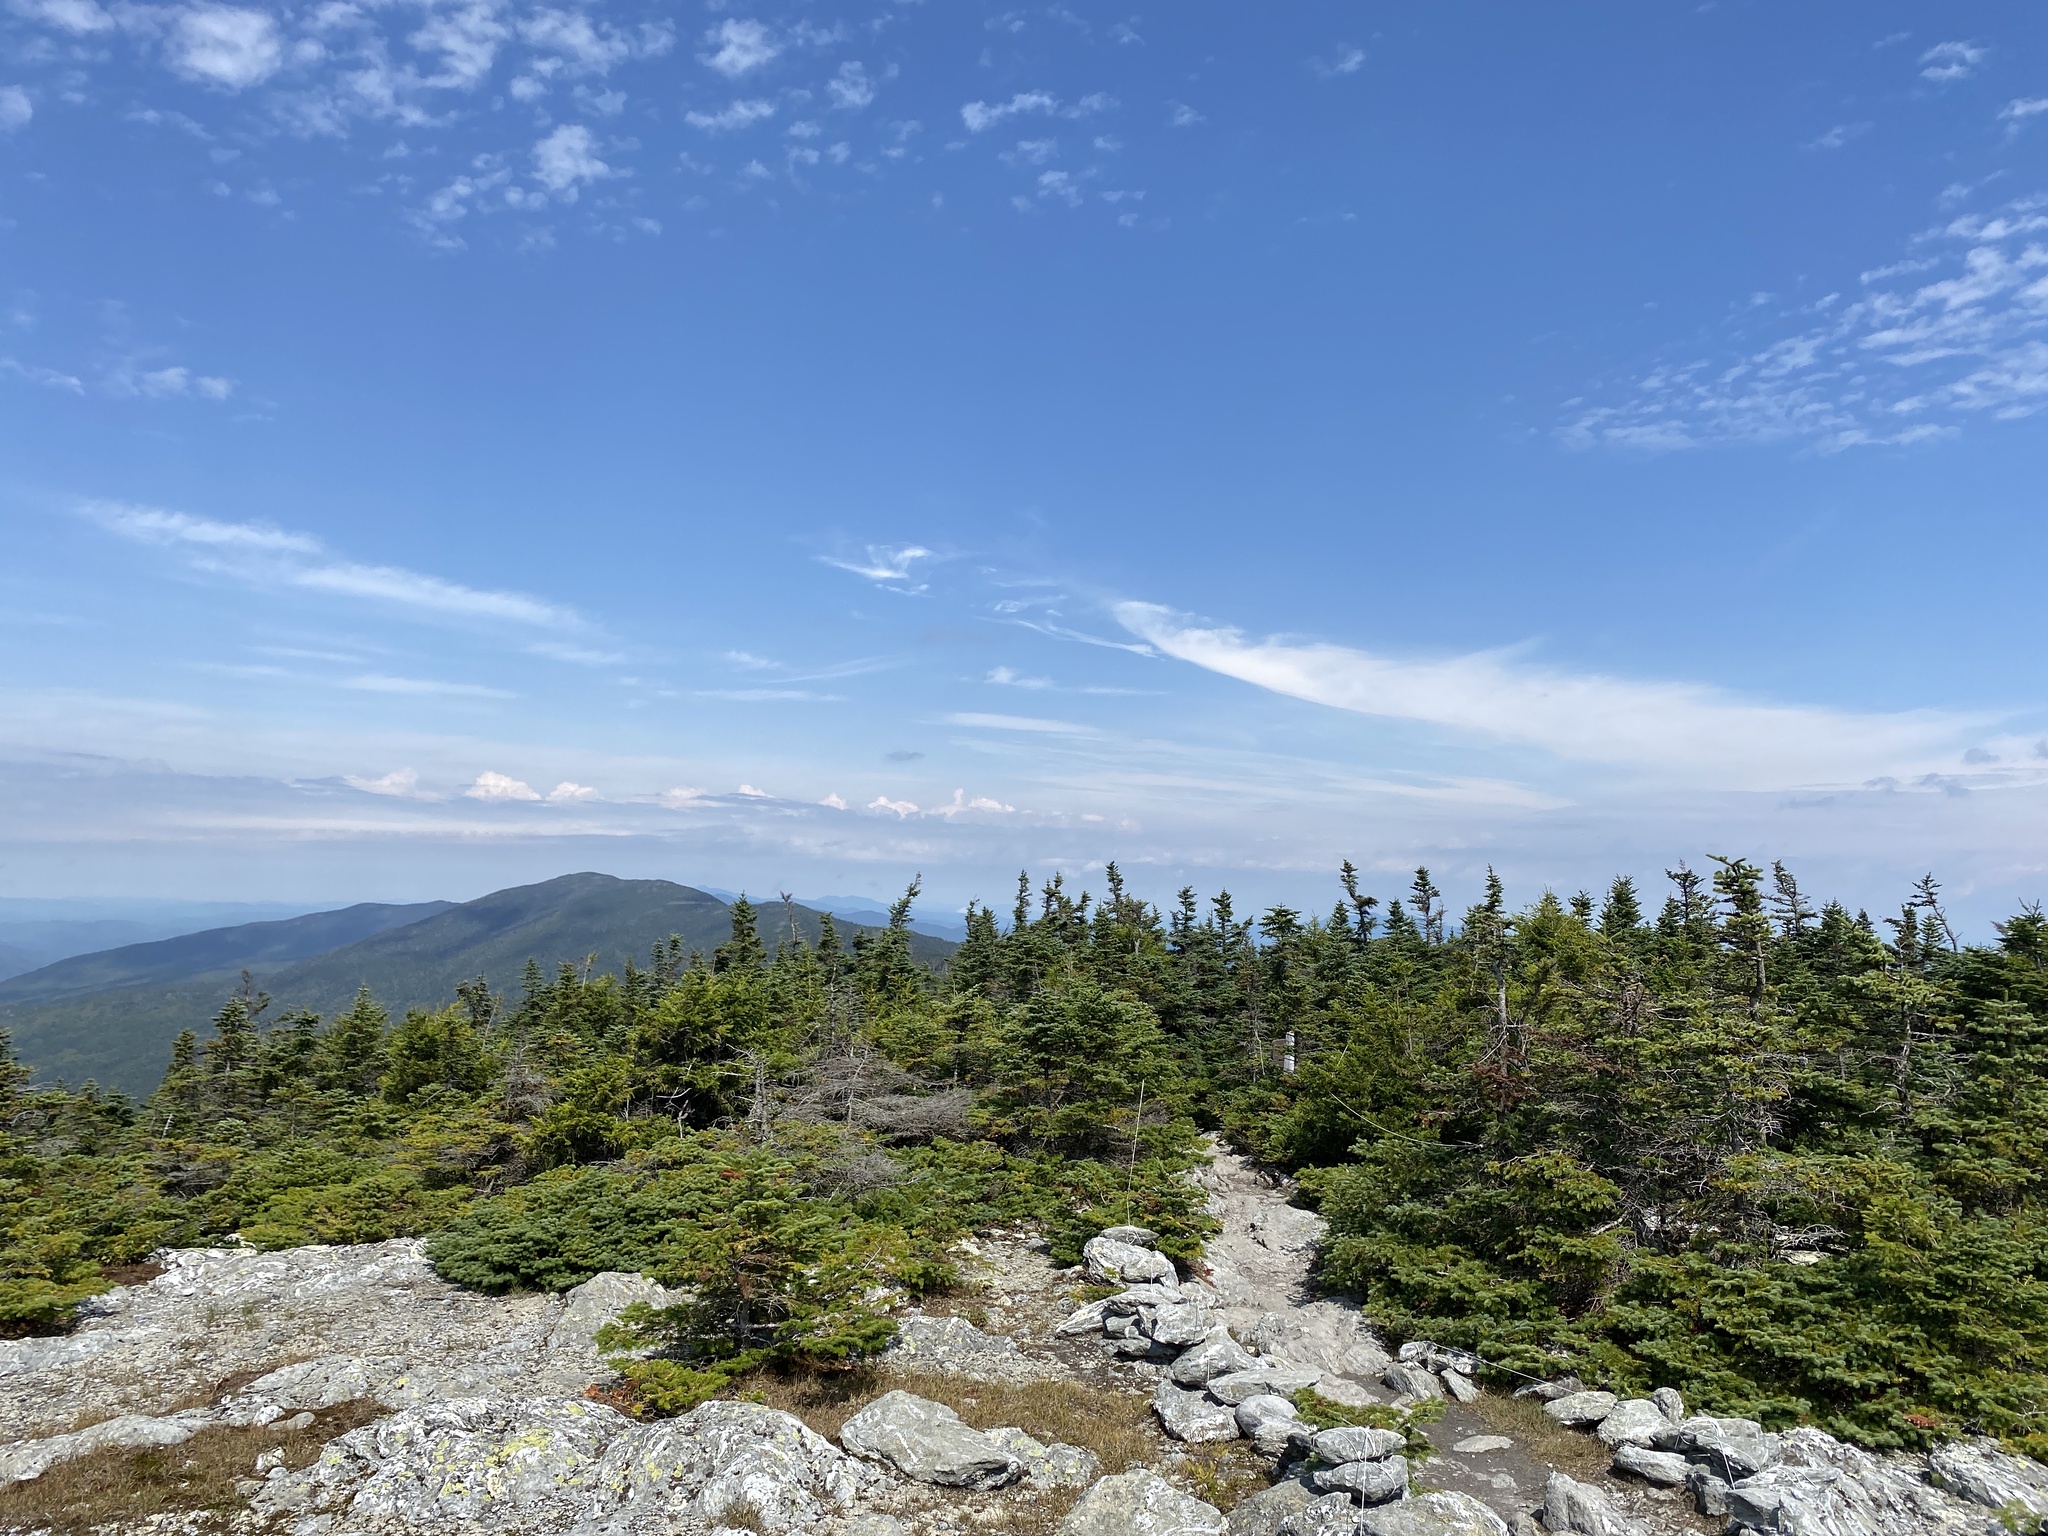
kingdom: Plantae
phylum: Tracheophyta
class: Pinopsida
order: Pinales
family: Pinaceae
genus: Abies
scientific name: Abies balsamea
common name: Balsam fir
